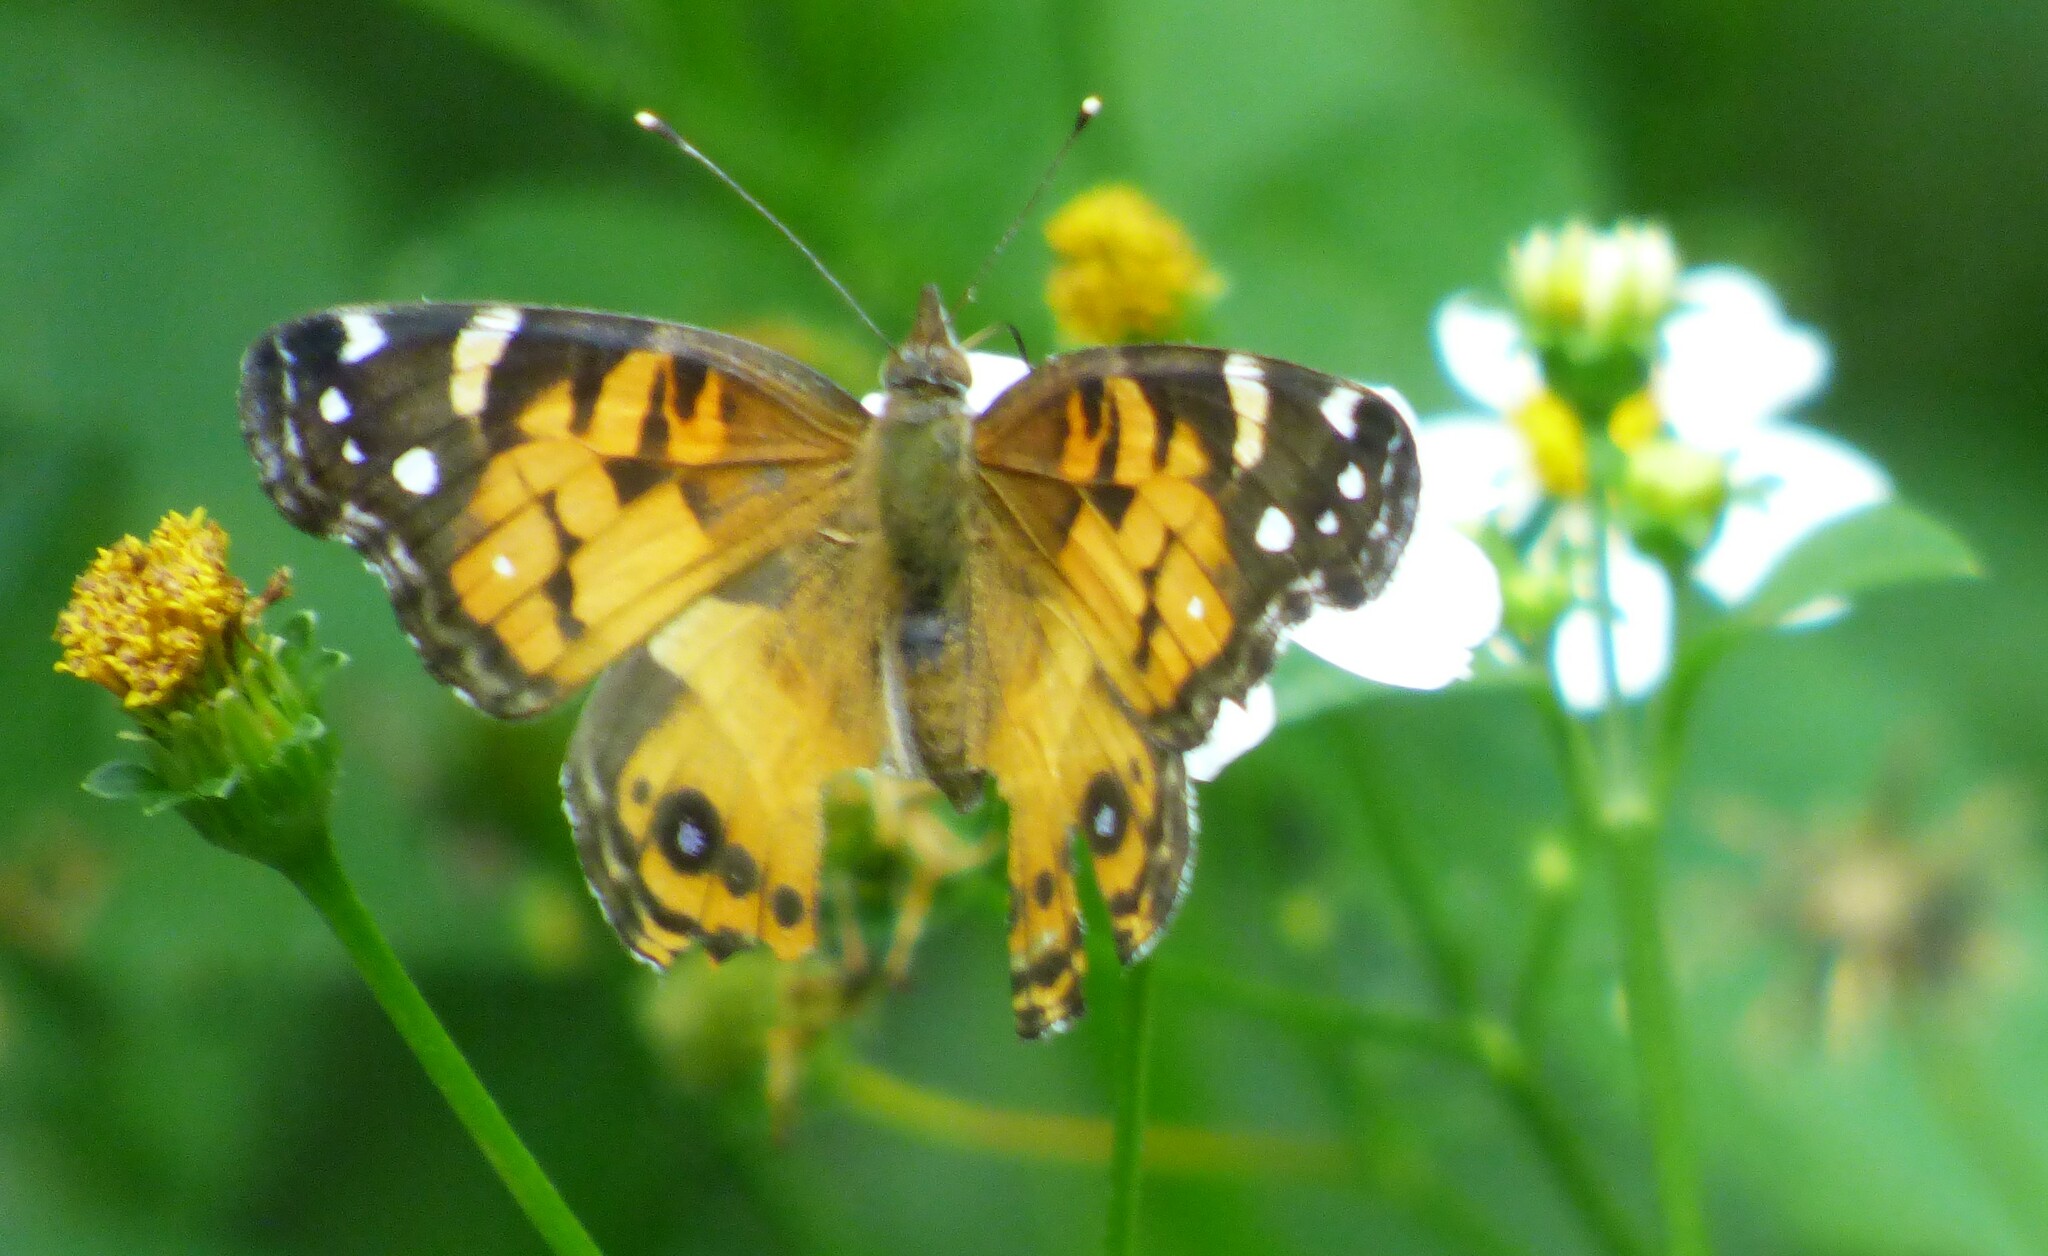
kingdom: Animalia
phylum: Arthropoda
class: Insecta
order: Lepidoptera
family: Nymphalidae
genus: Vanessa
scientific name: Vanessa virginiensis
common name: American lady
